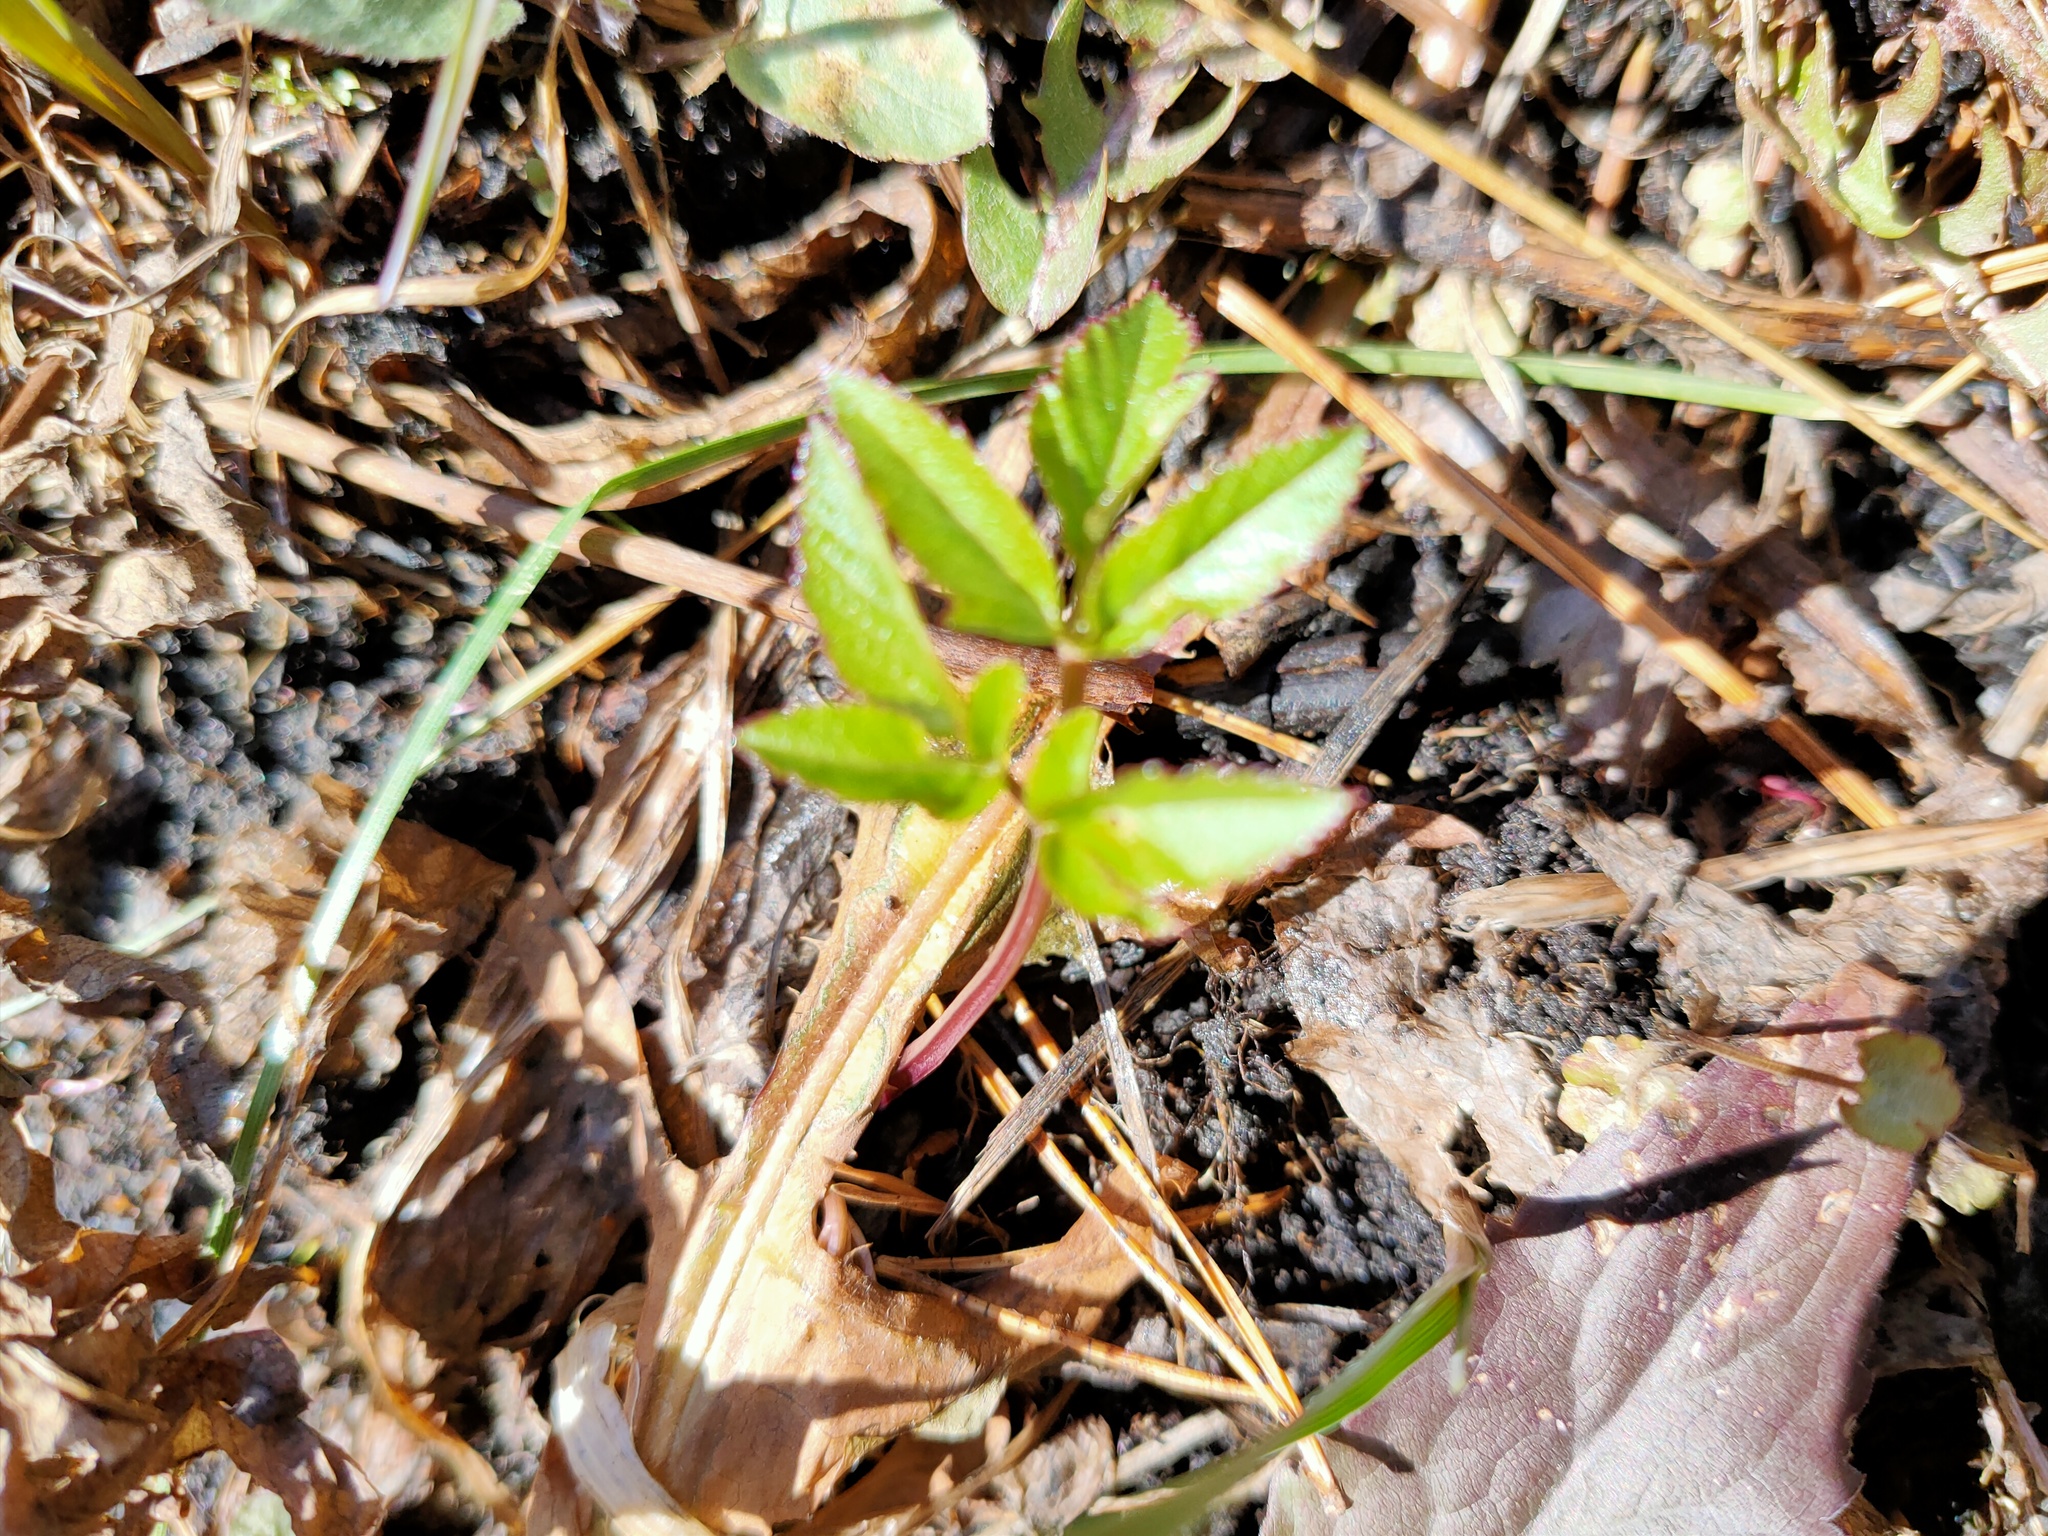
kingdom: Plantae
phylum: Tracheophyta
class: Magnoliopsida
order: Apiales
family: Apiaceae
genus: Aegopodium
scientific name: Aegopodium podagraria
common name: Ground-elder
